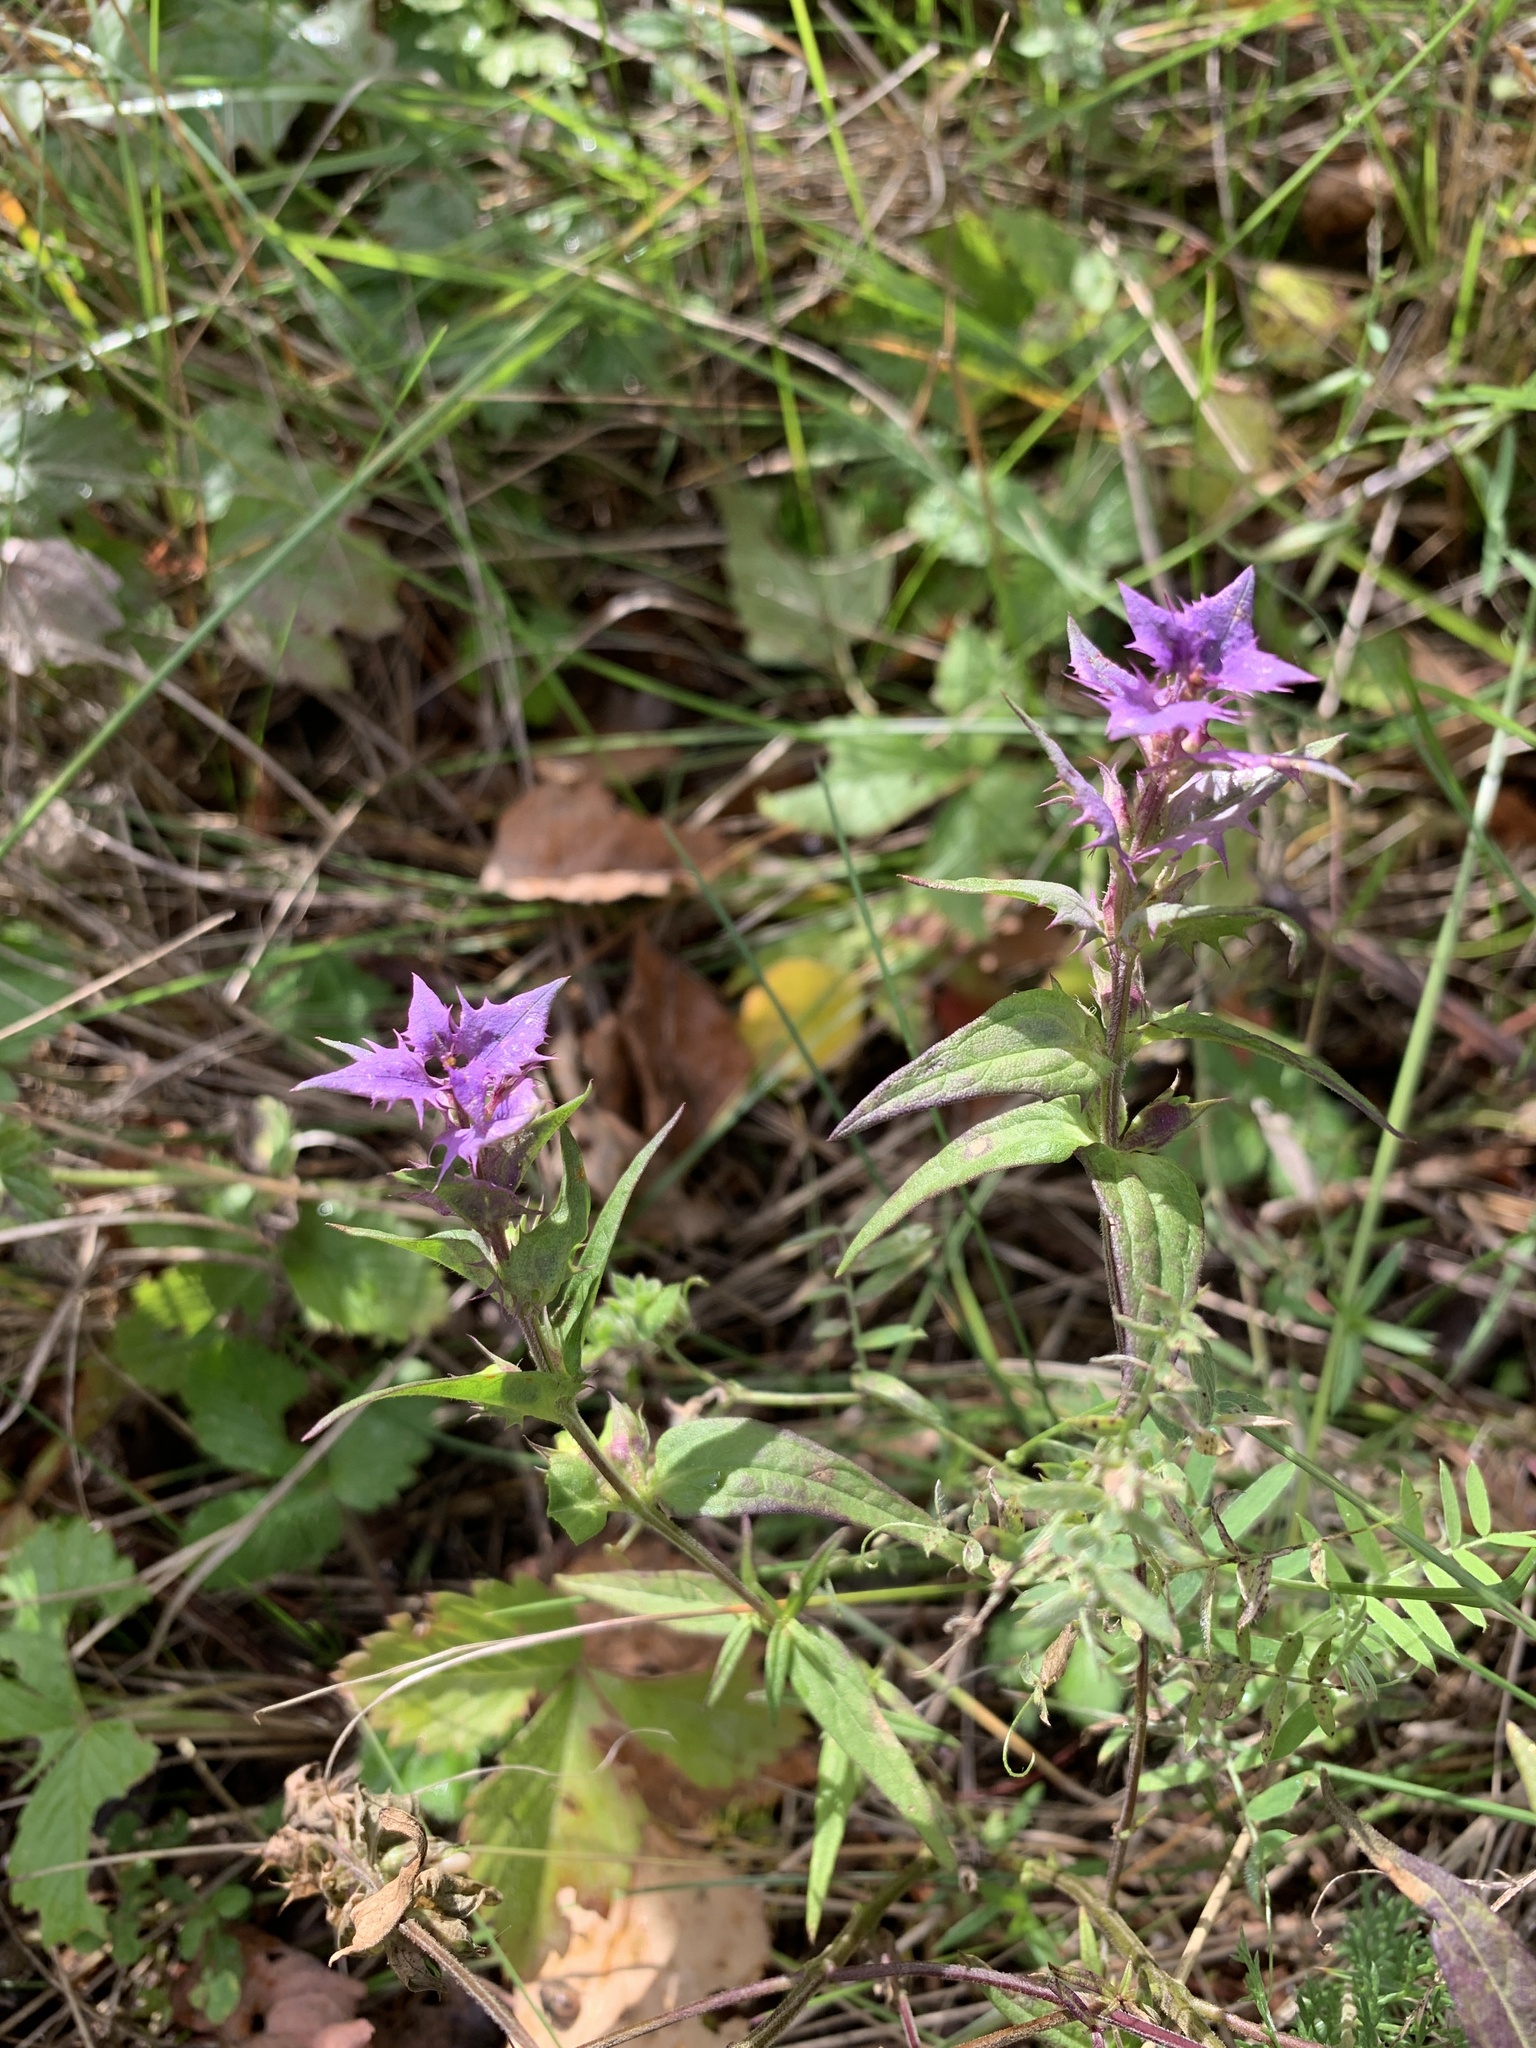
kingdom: Plantae
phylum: Tracheophyta
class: Magnoliopsida
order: Lamiales
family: Orobanchaceae
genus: Melampyrum
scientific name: Melampyrum nemorosum
